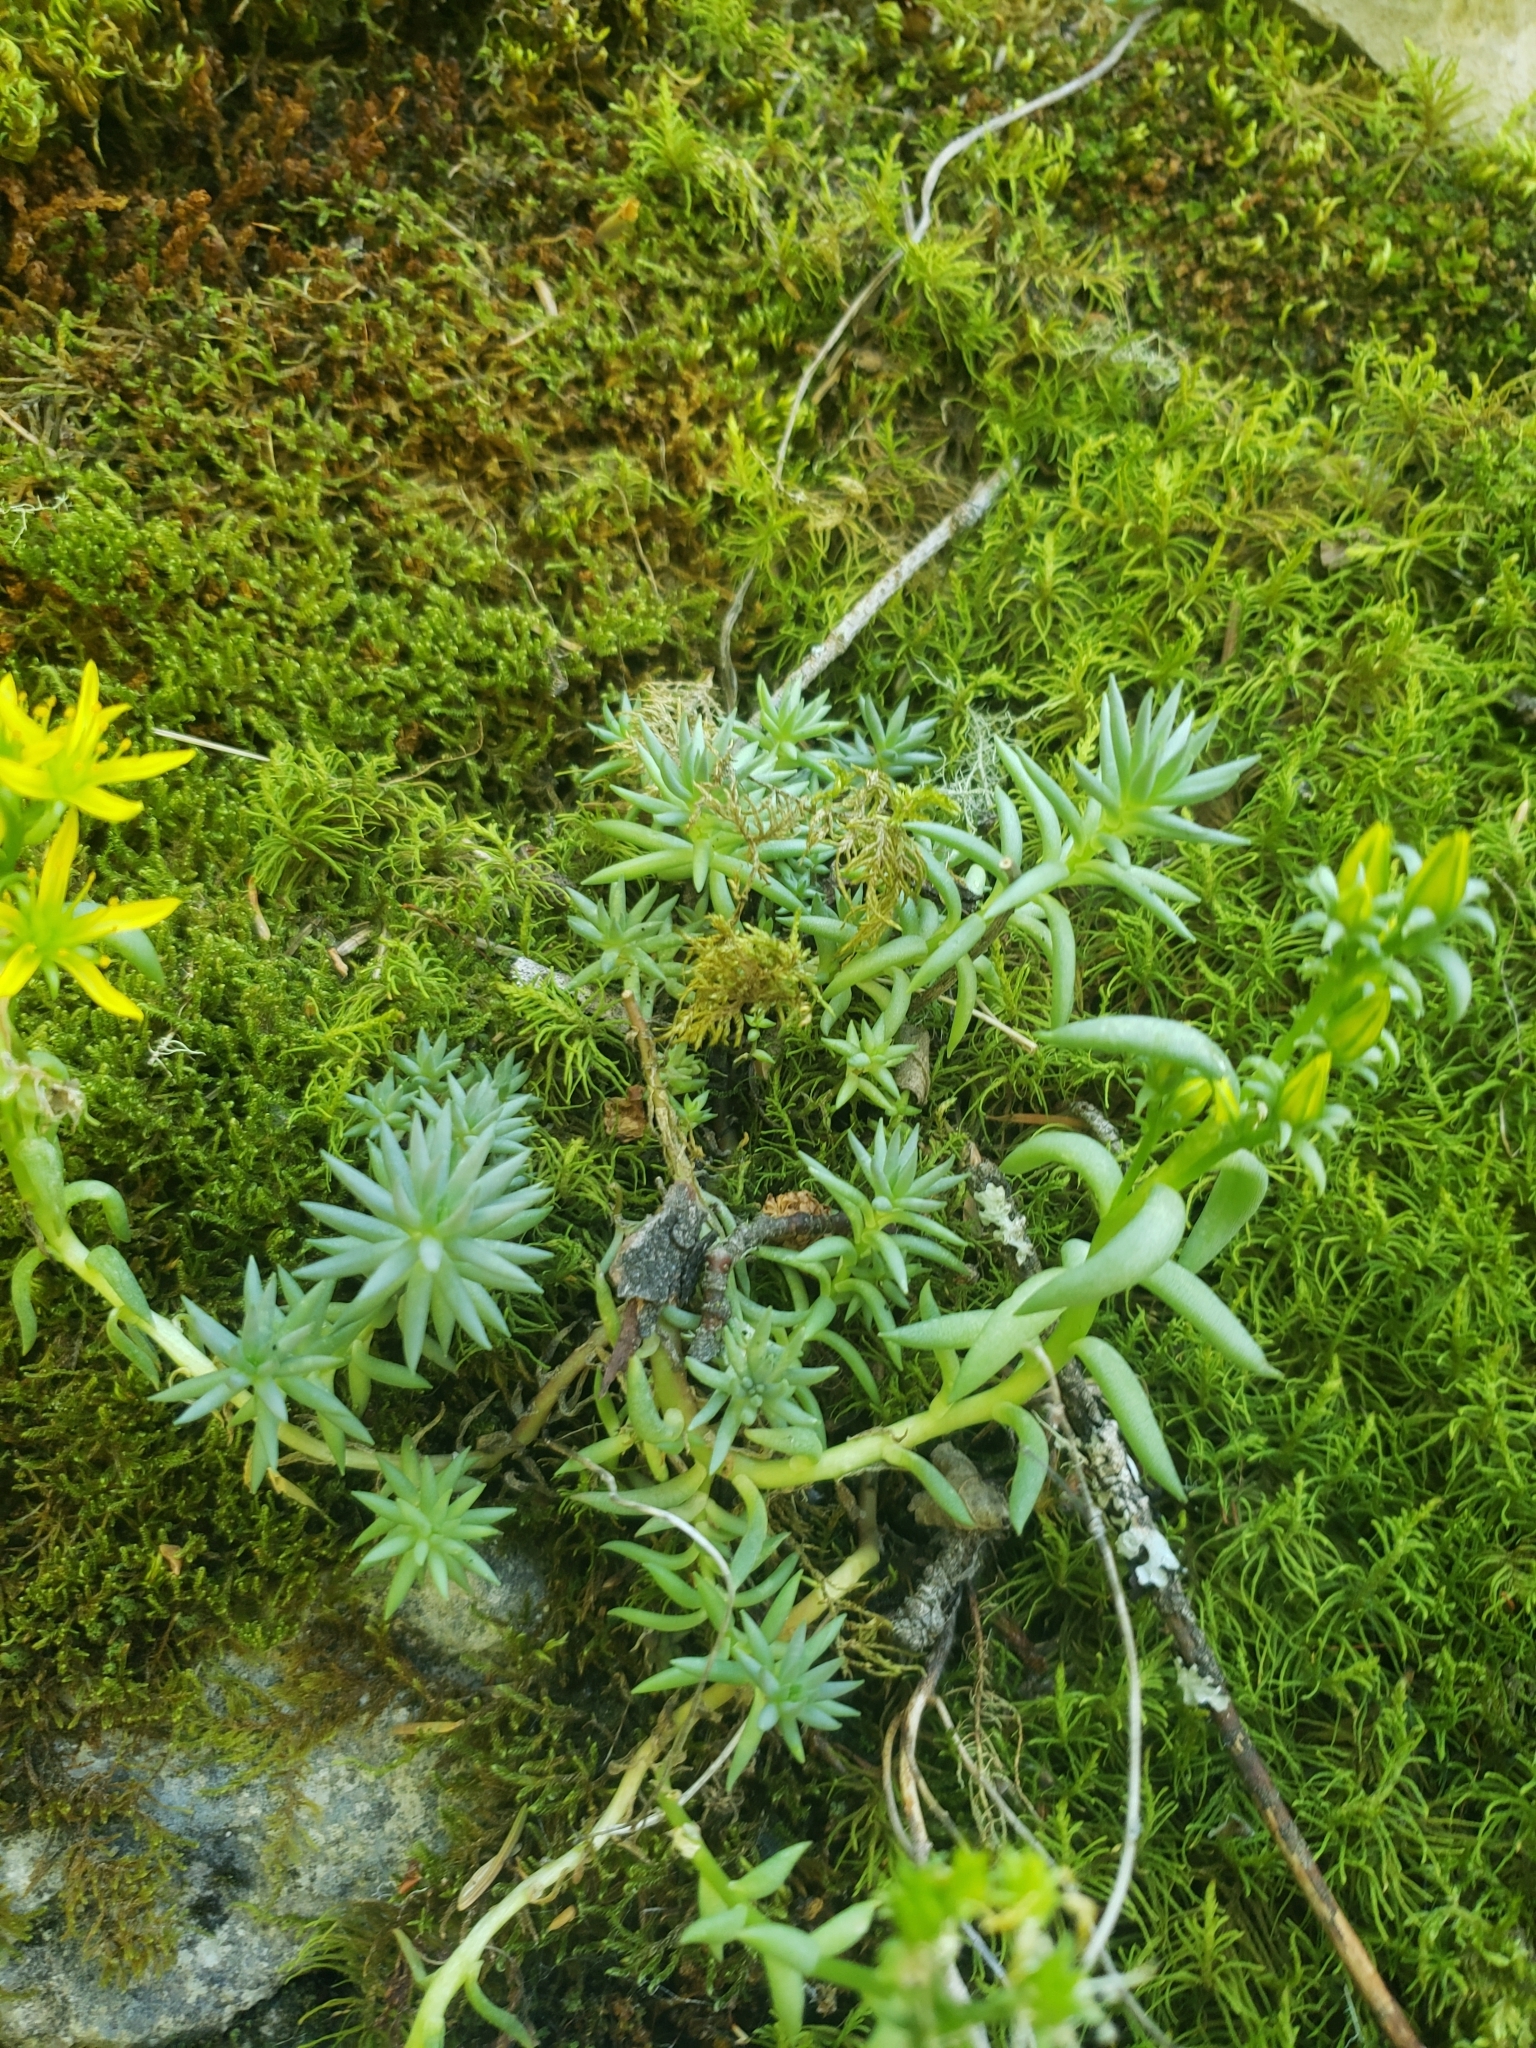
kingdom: Plantae
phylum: Tracheophyta
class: Magnoliopsida
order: Saxifragales
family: Crassulaceae
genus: Sedum
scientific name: Sedum lanceolatum
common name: Common stonecrop
